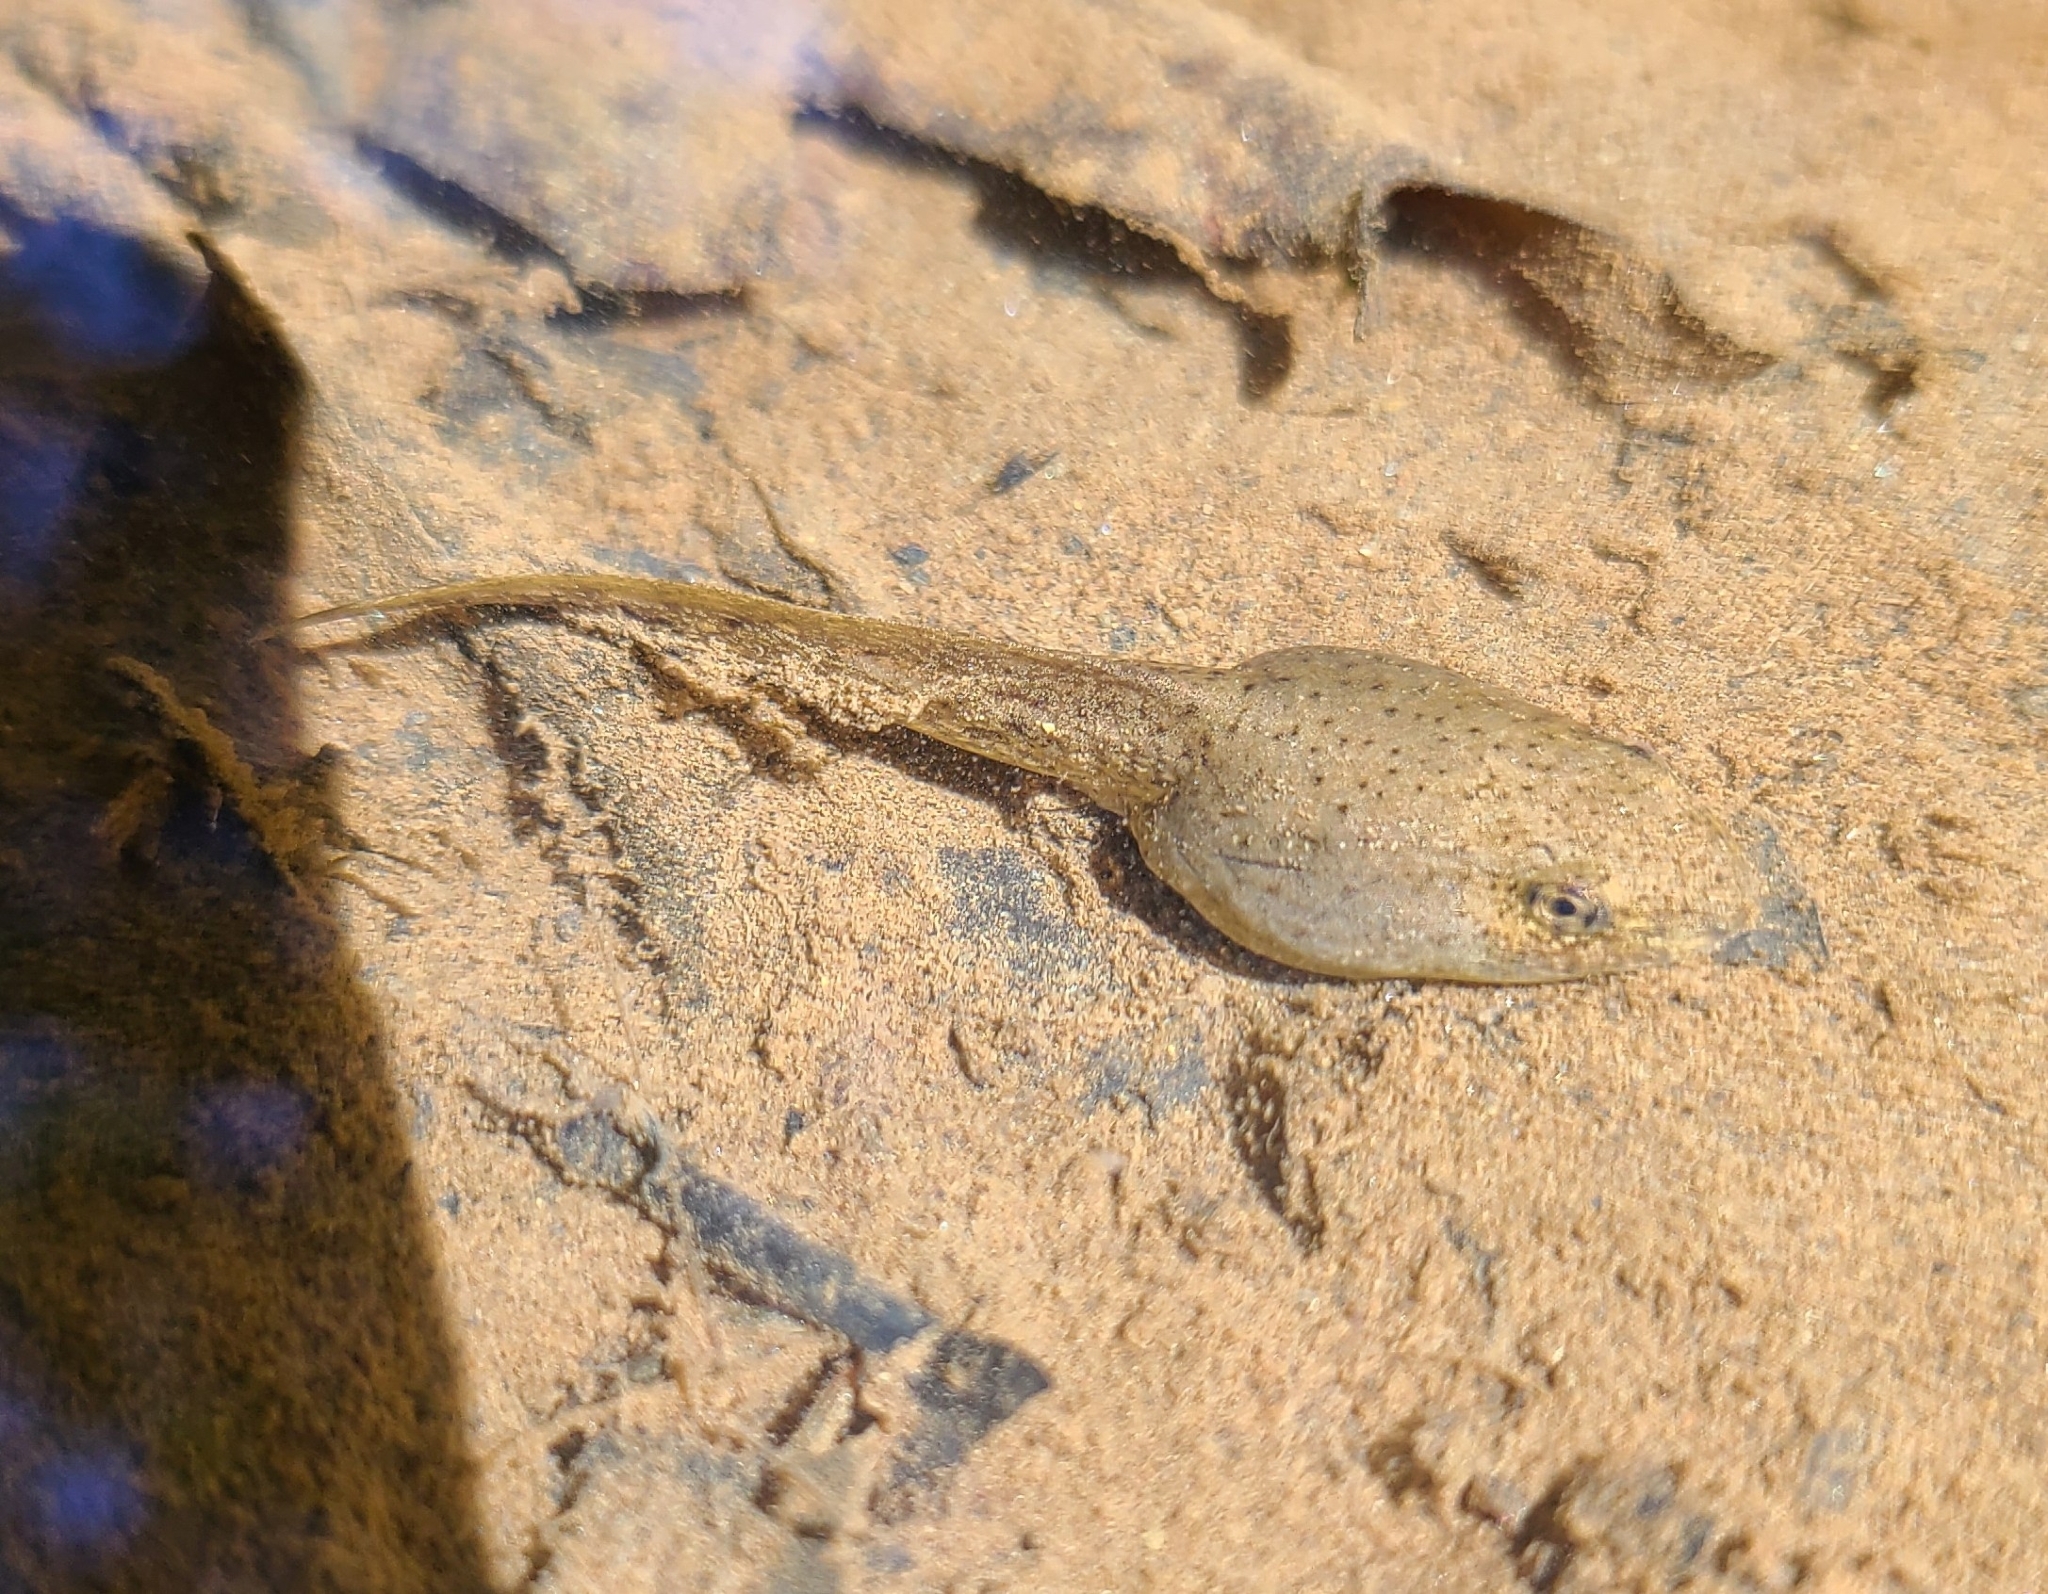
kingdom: Animalia
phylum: Chordata
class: Amphibia
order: Anura
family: Ranidae
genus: Lithobates
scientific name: Lithobates clamitans
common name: Green frog
